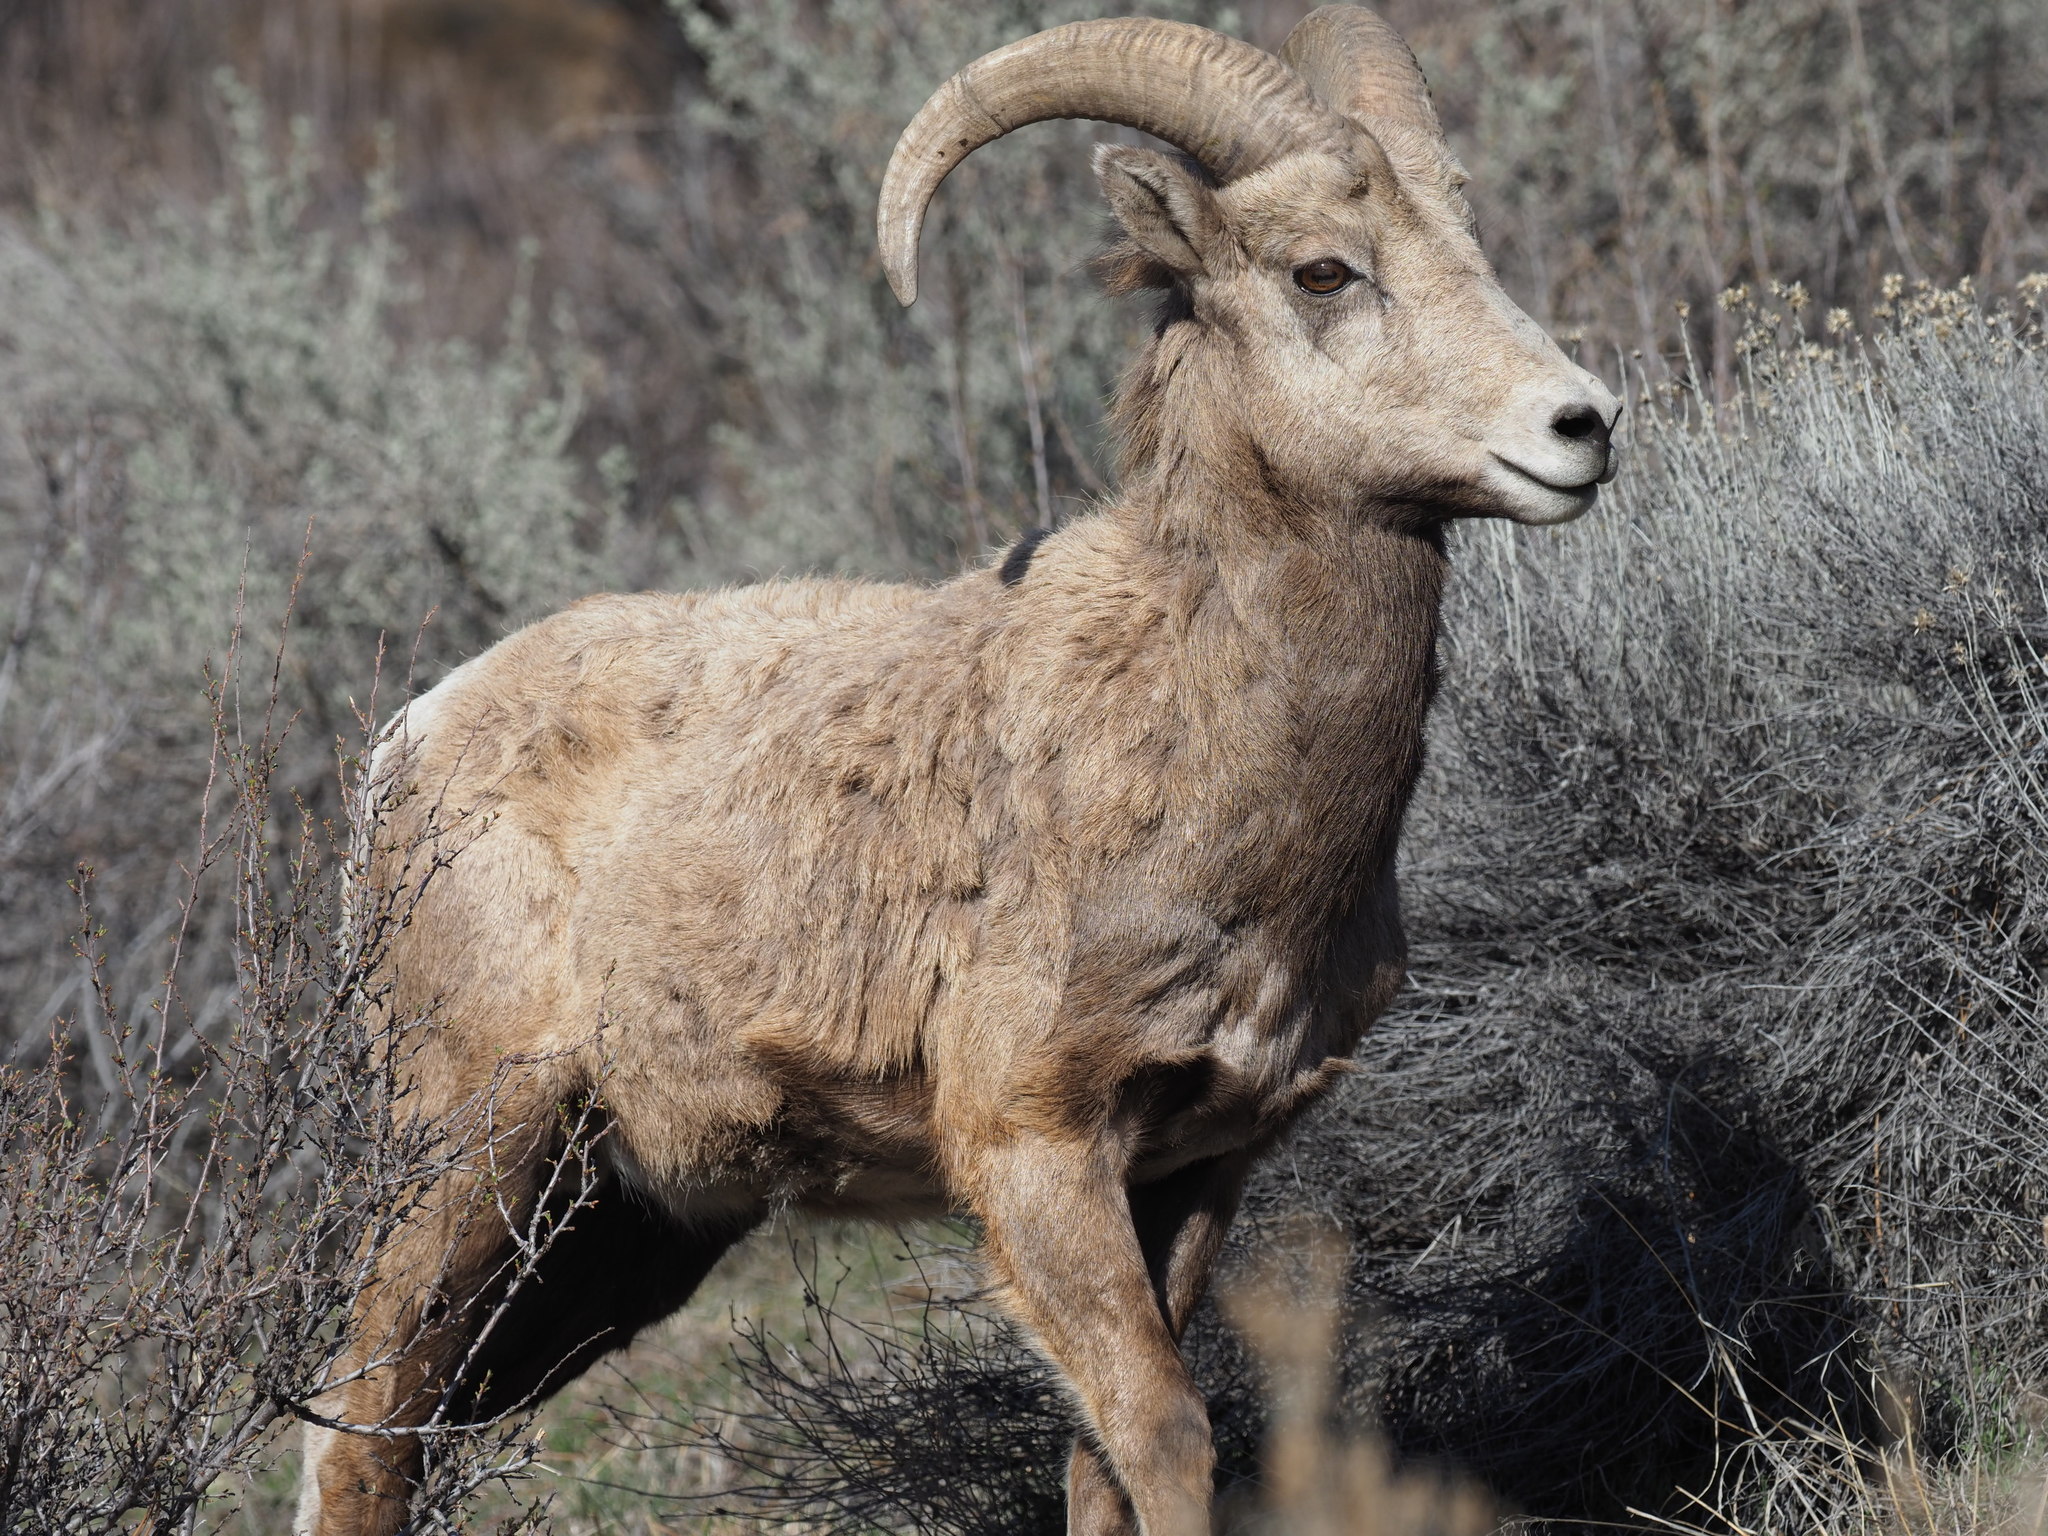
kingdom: Animalia
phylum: Chordata
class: Mammalia
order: Artiodactyla
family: Bovidae
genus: Ovis
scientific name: Ovis canadensis
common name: Bighorn sheep
